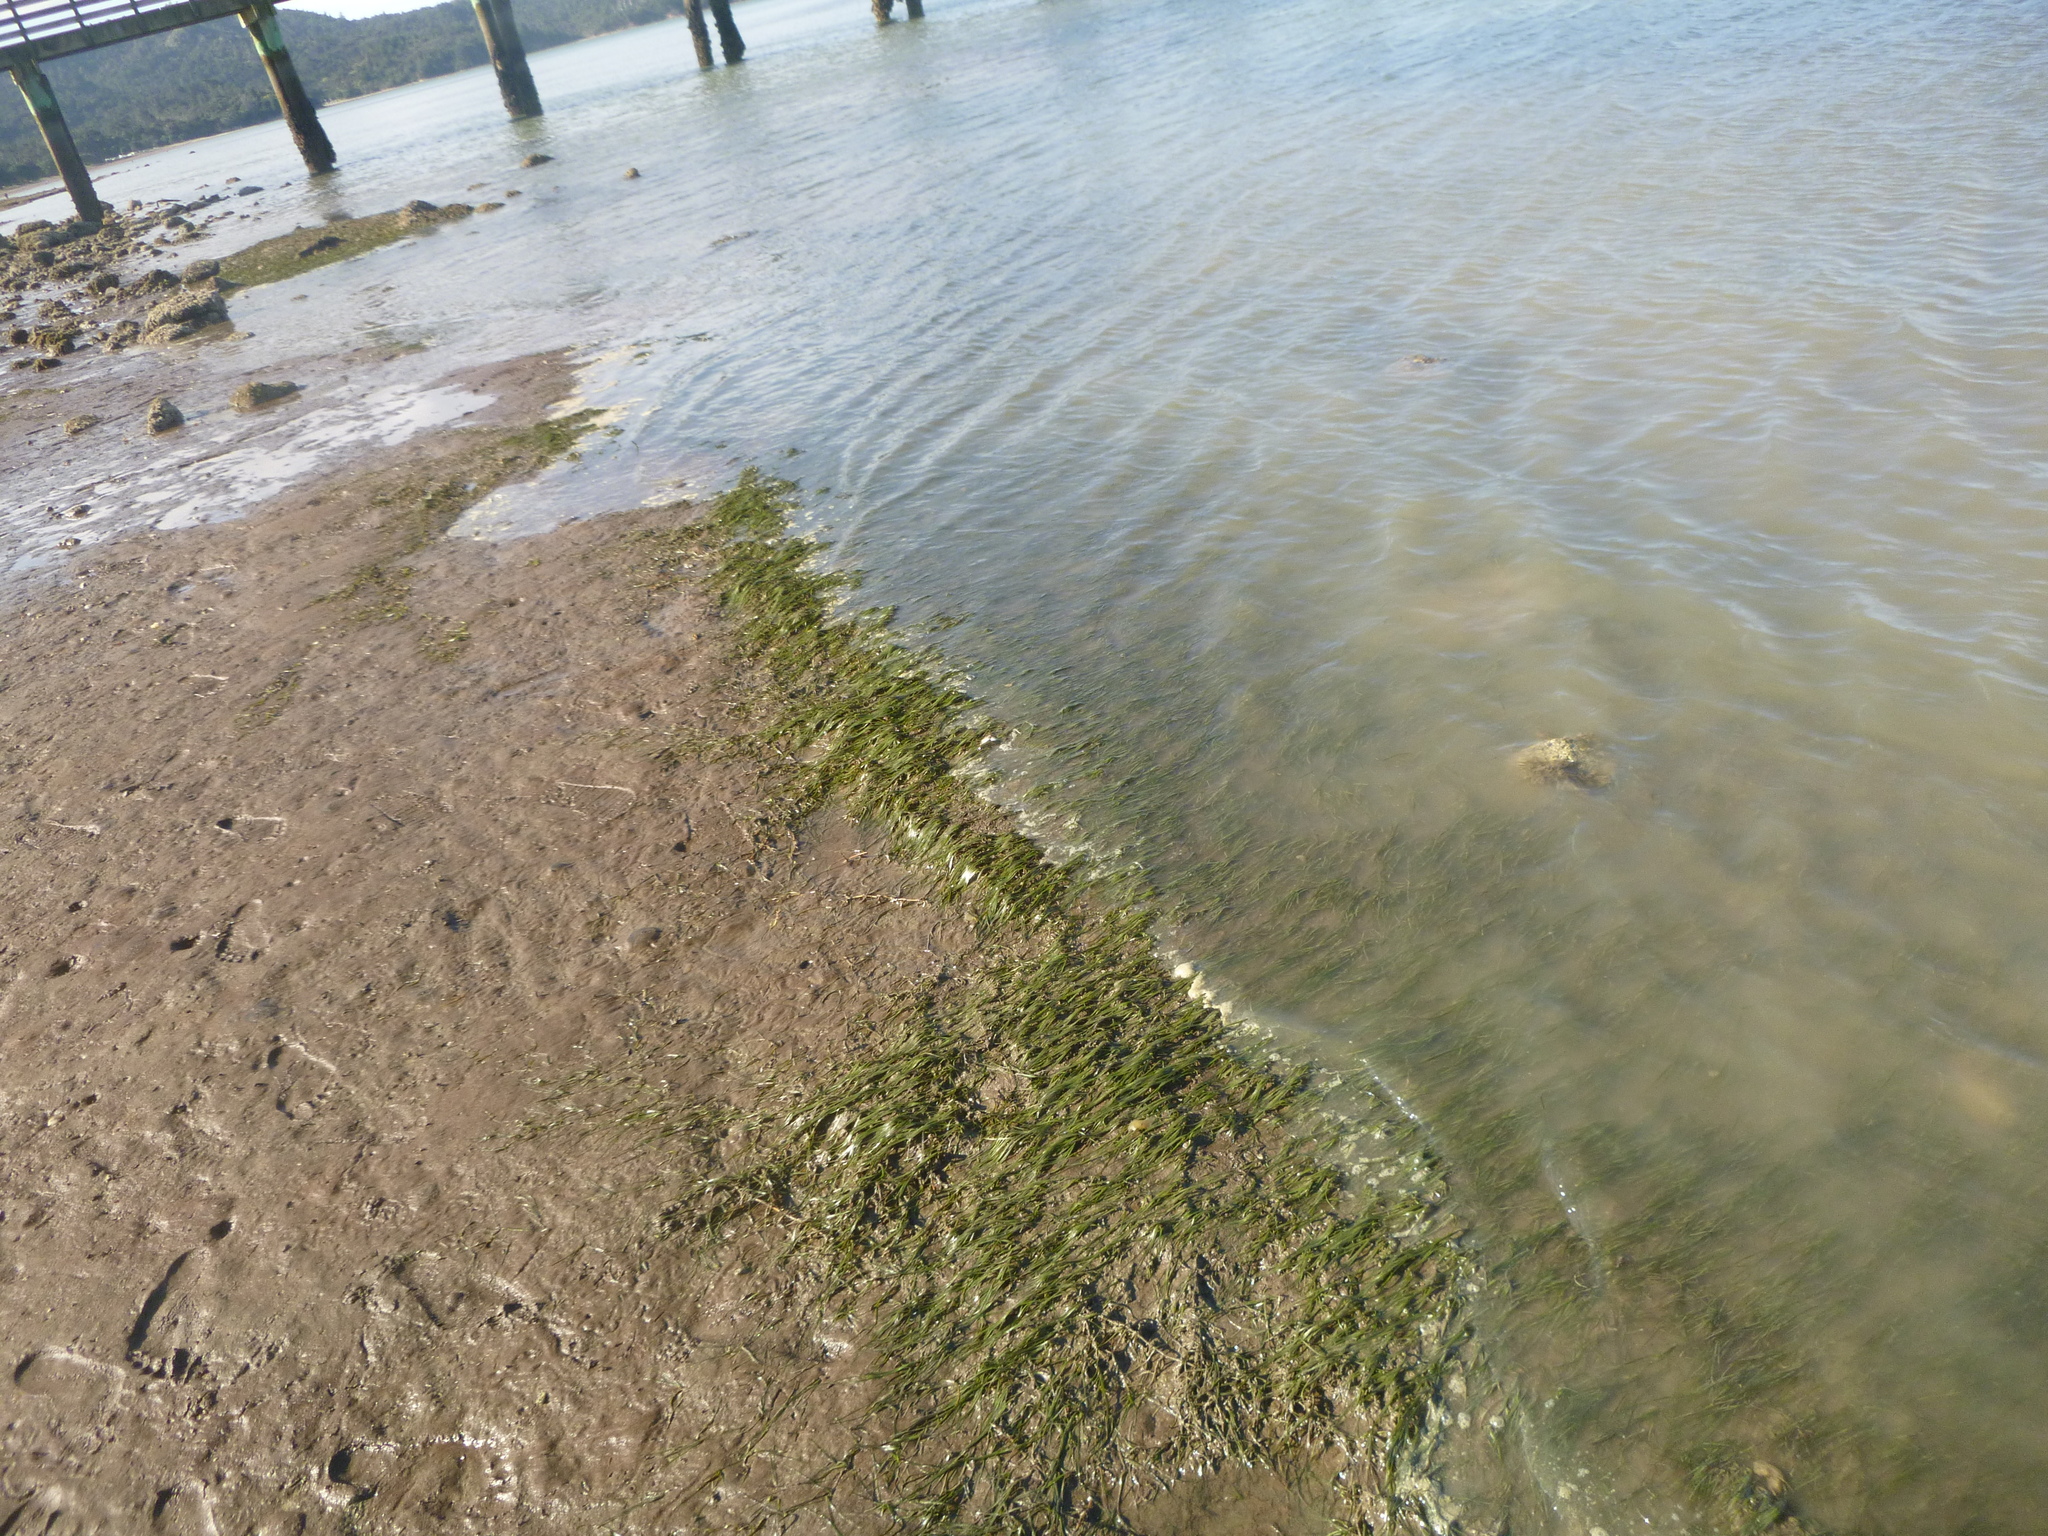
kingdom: Plantae
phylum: Tracheophyta
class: Liliopsida
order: Alismatales
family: Zosteraceae
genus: Zostera
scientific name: Zostera novazelandica
